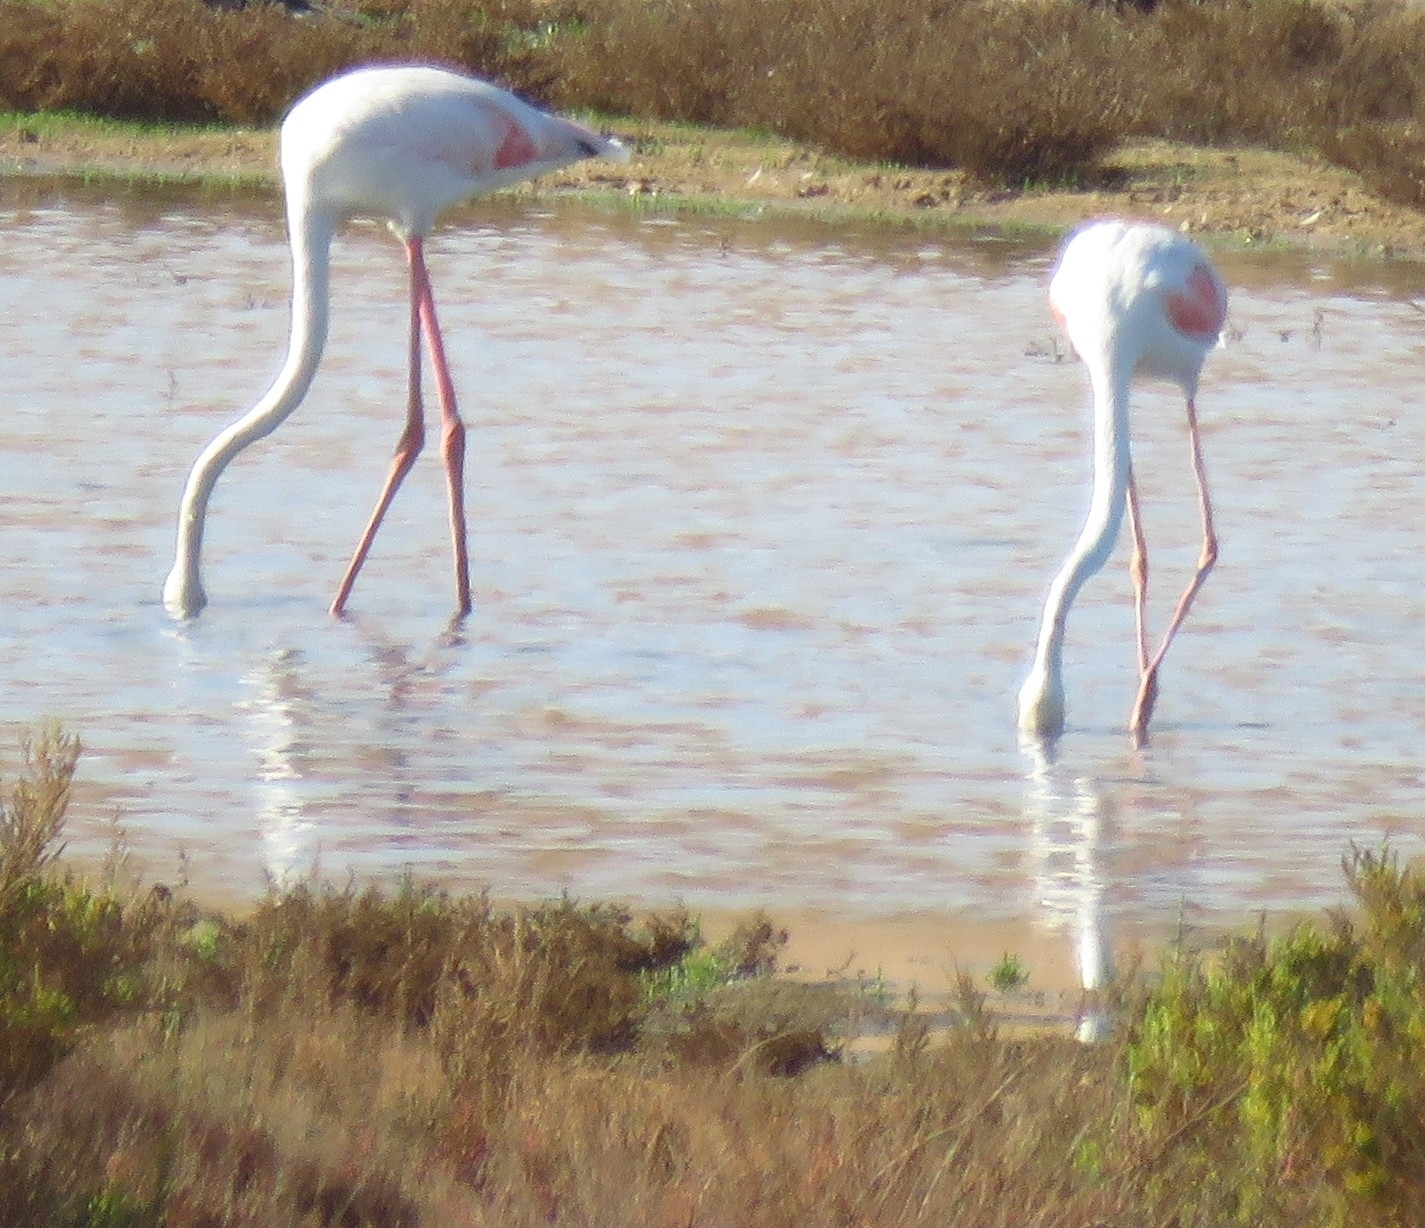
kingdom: Animalia
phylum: Chordata
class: Aves
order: Phoenicopteriformes
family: Phoenicopteridae
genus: Phoenicopterus
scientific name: Phoenicopterus roseus
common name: Greater flamingo
